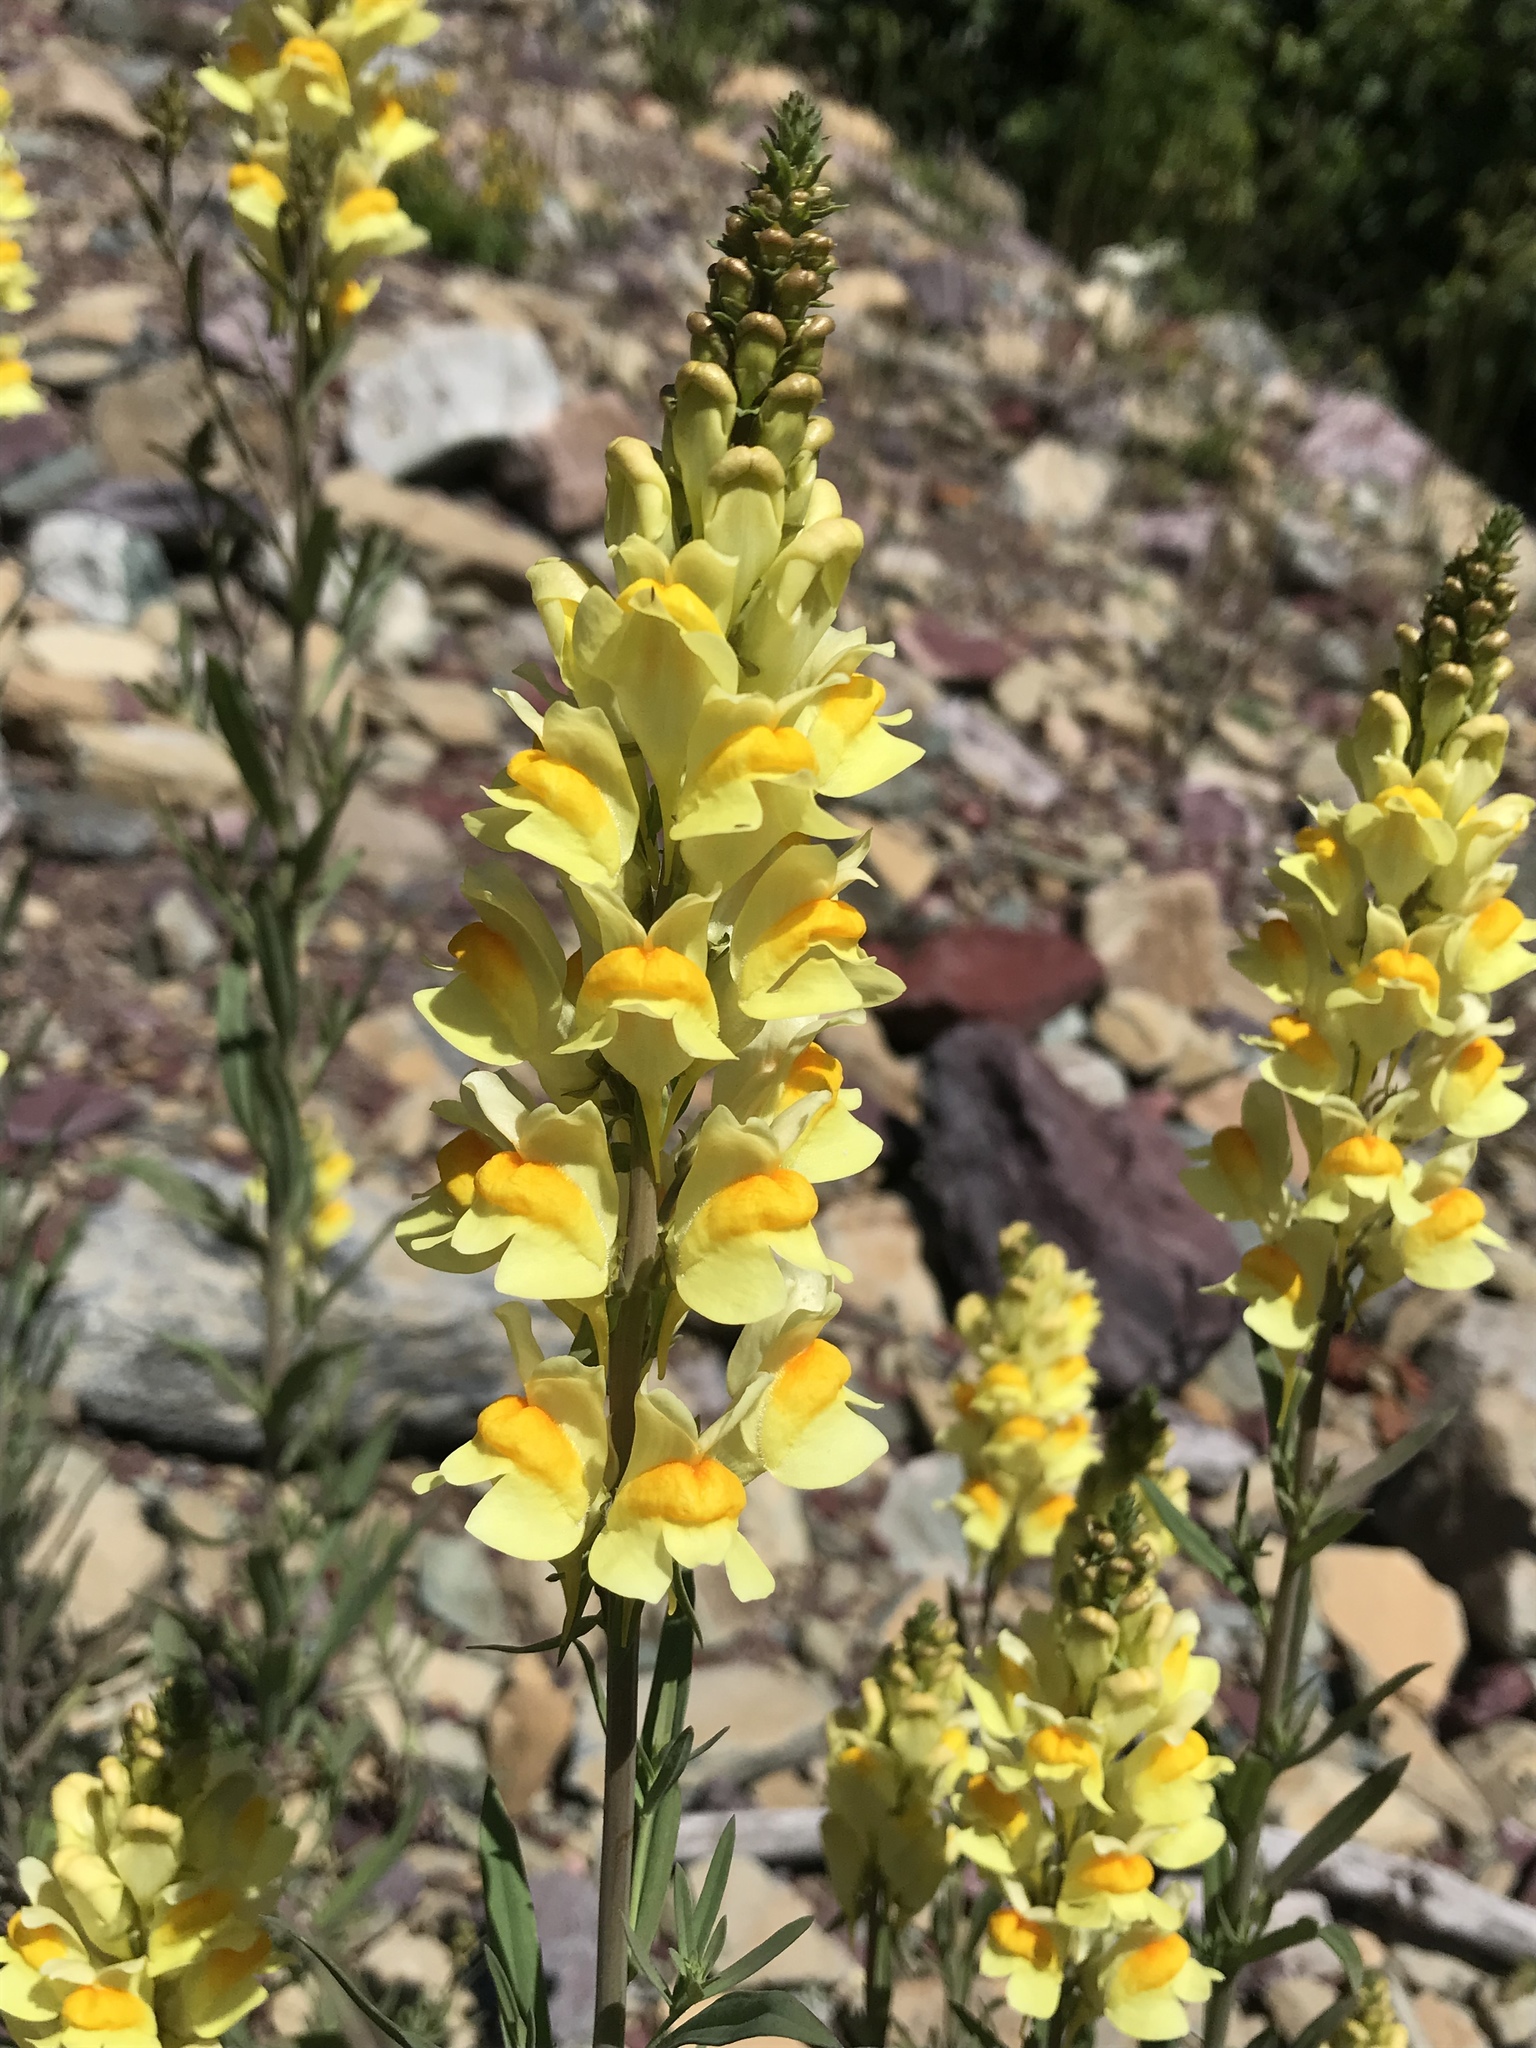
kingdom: Plantae
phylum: Tracheophyta
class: Magnoliopsida
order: Lamiales
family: Plantaginaceae
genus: Linaria
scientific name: Linaria vulgaris
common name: Butter and eggs
